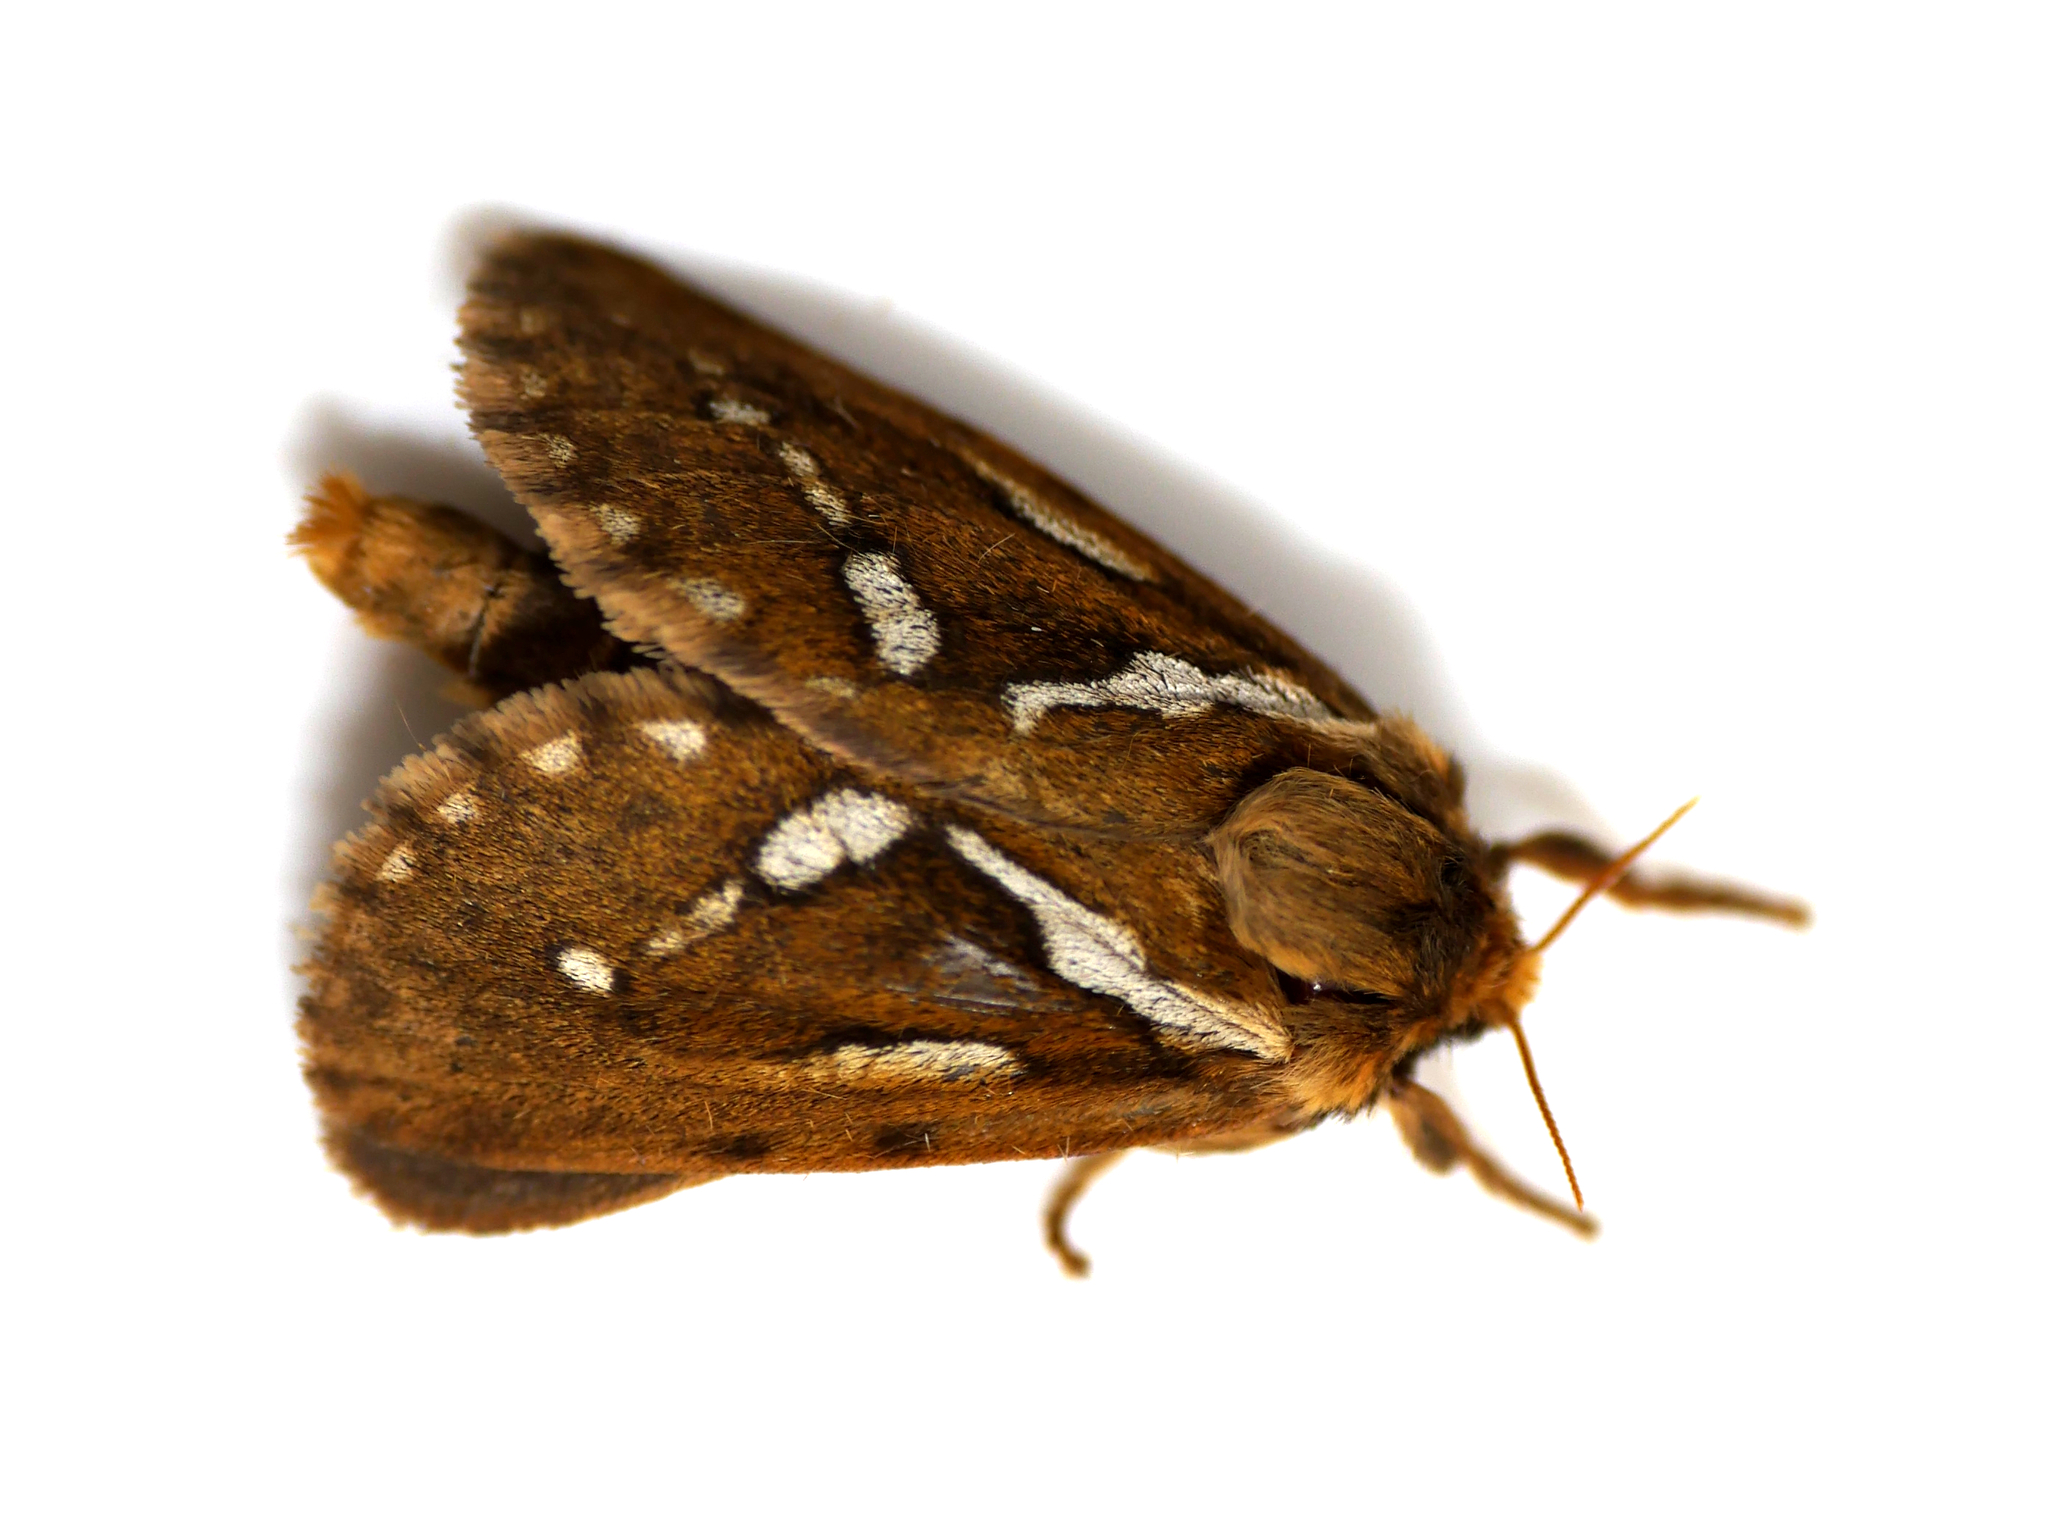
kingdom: Animalia
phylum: Arthropoda
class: Insecta
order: Lepidoptera
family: Hepialidae
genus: Korscheltellus
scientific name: Korscheltellus lupulina
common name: Common swift
